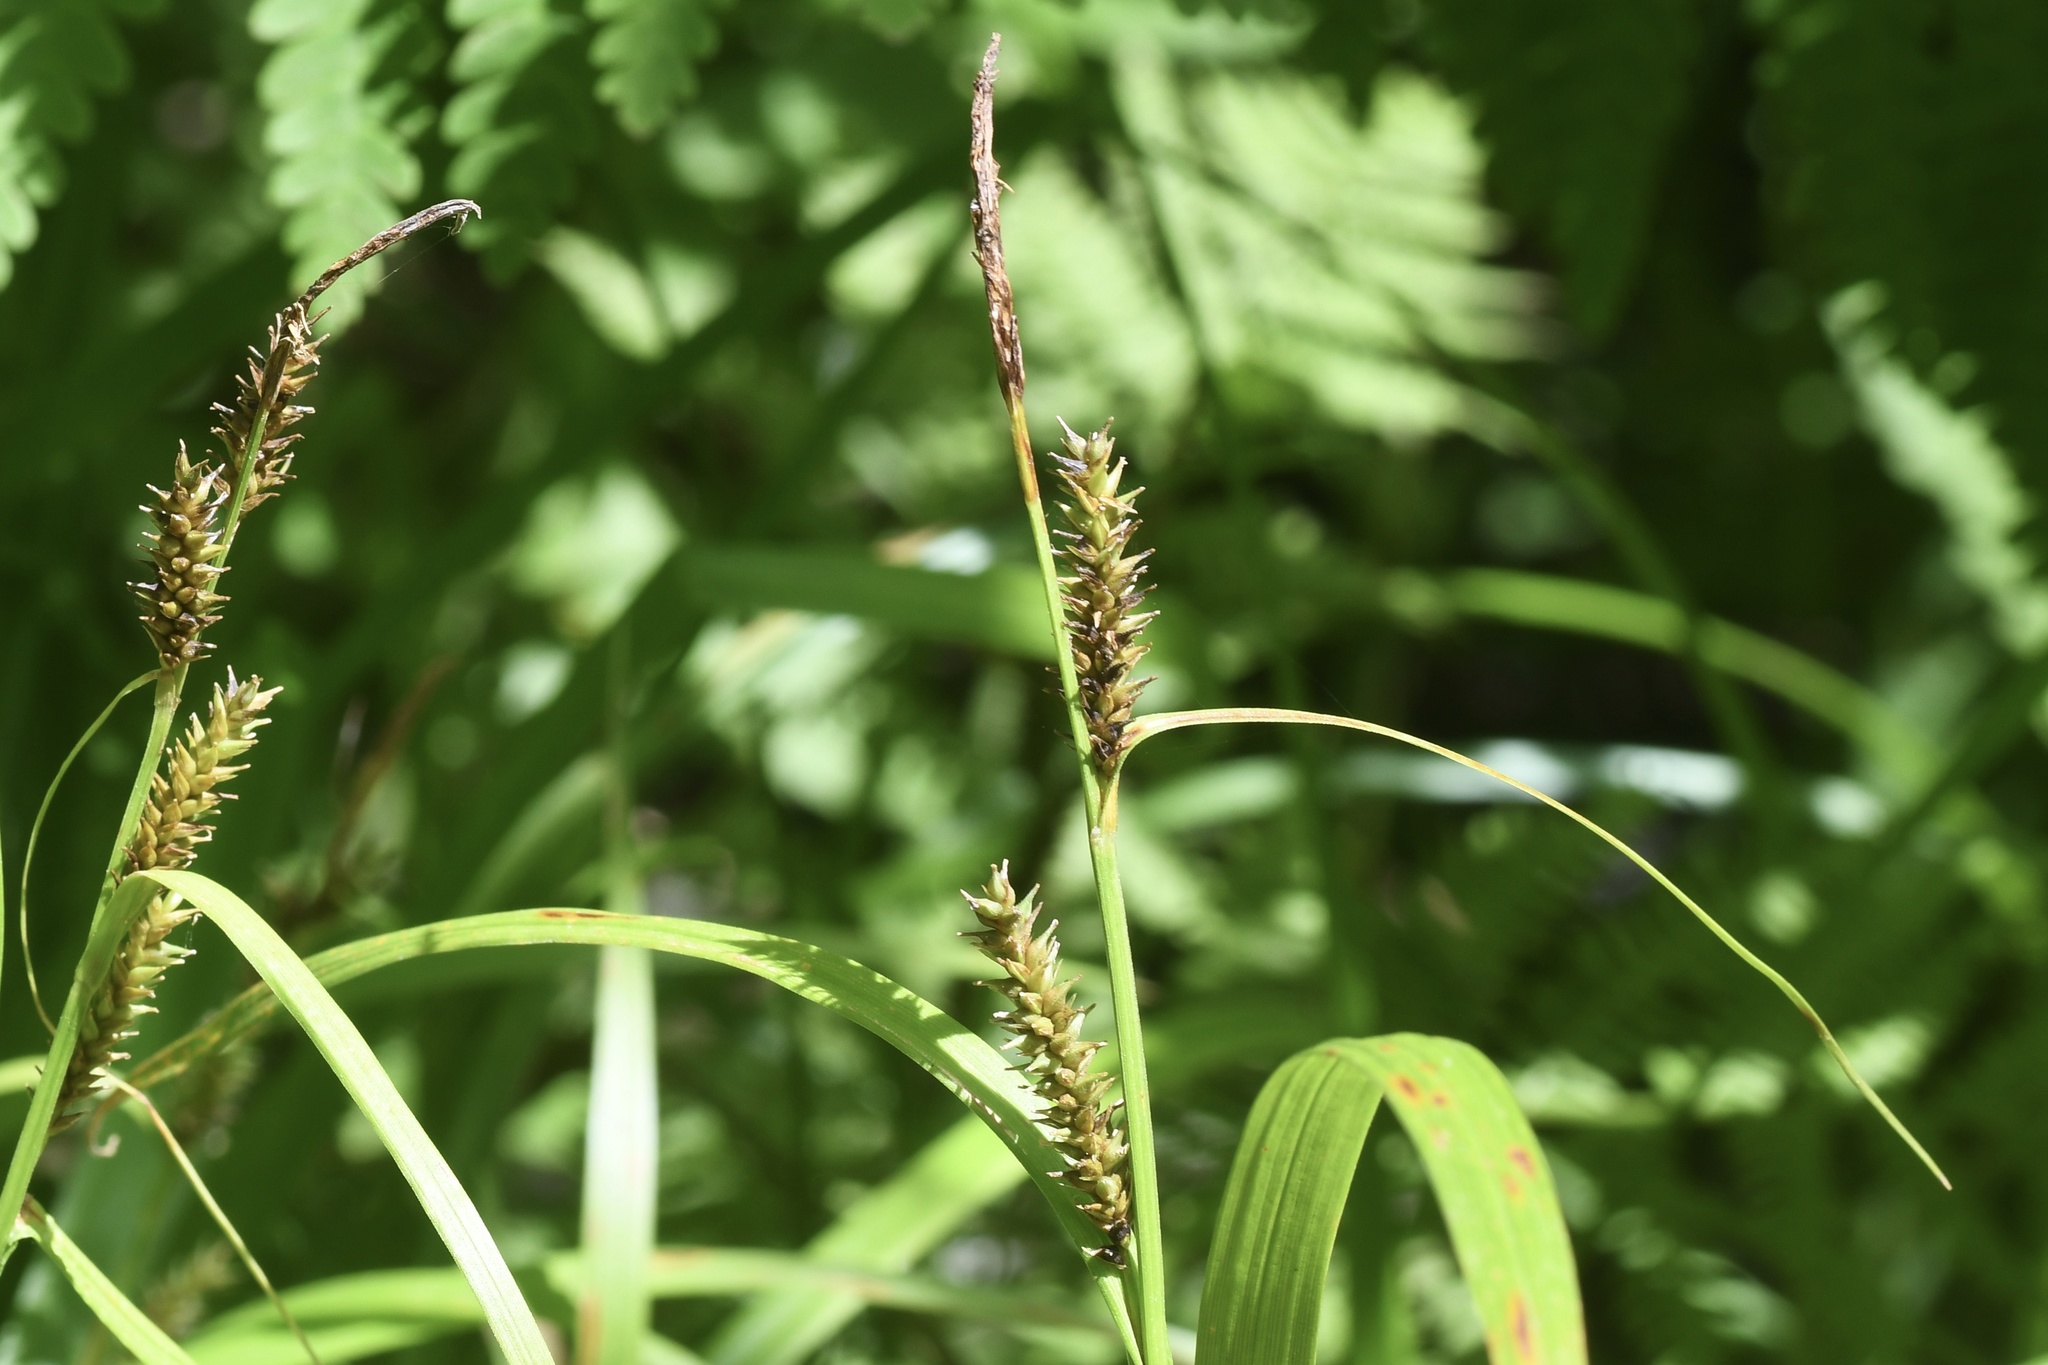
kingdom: Plantae
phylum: Tracheophyta
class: Liliopsida
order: Poales
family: Cyperaceae
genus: Carex
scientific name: Carex scabrata
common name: Eastern rough sedge
